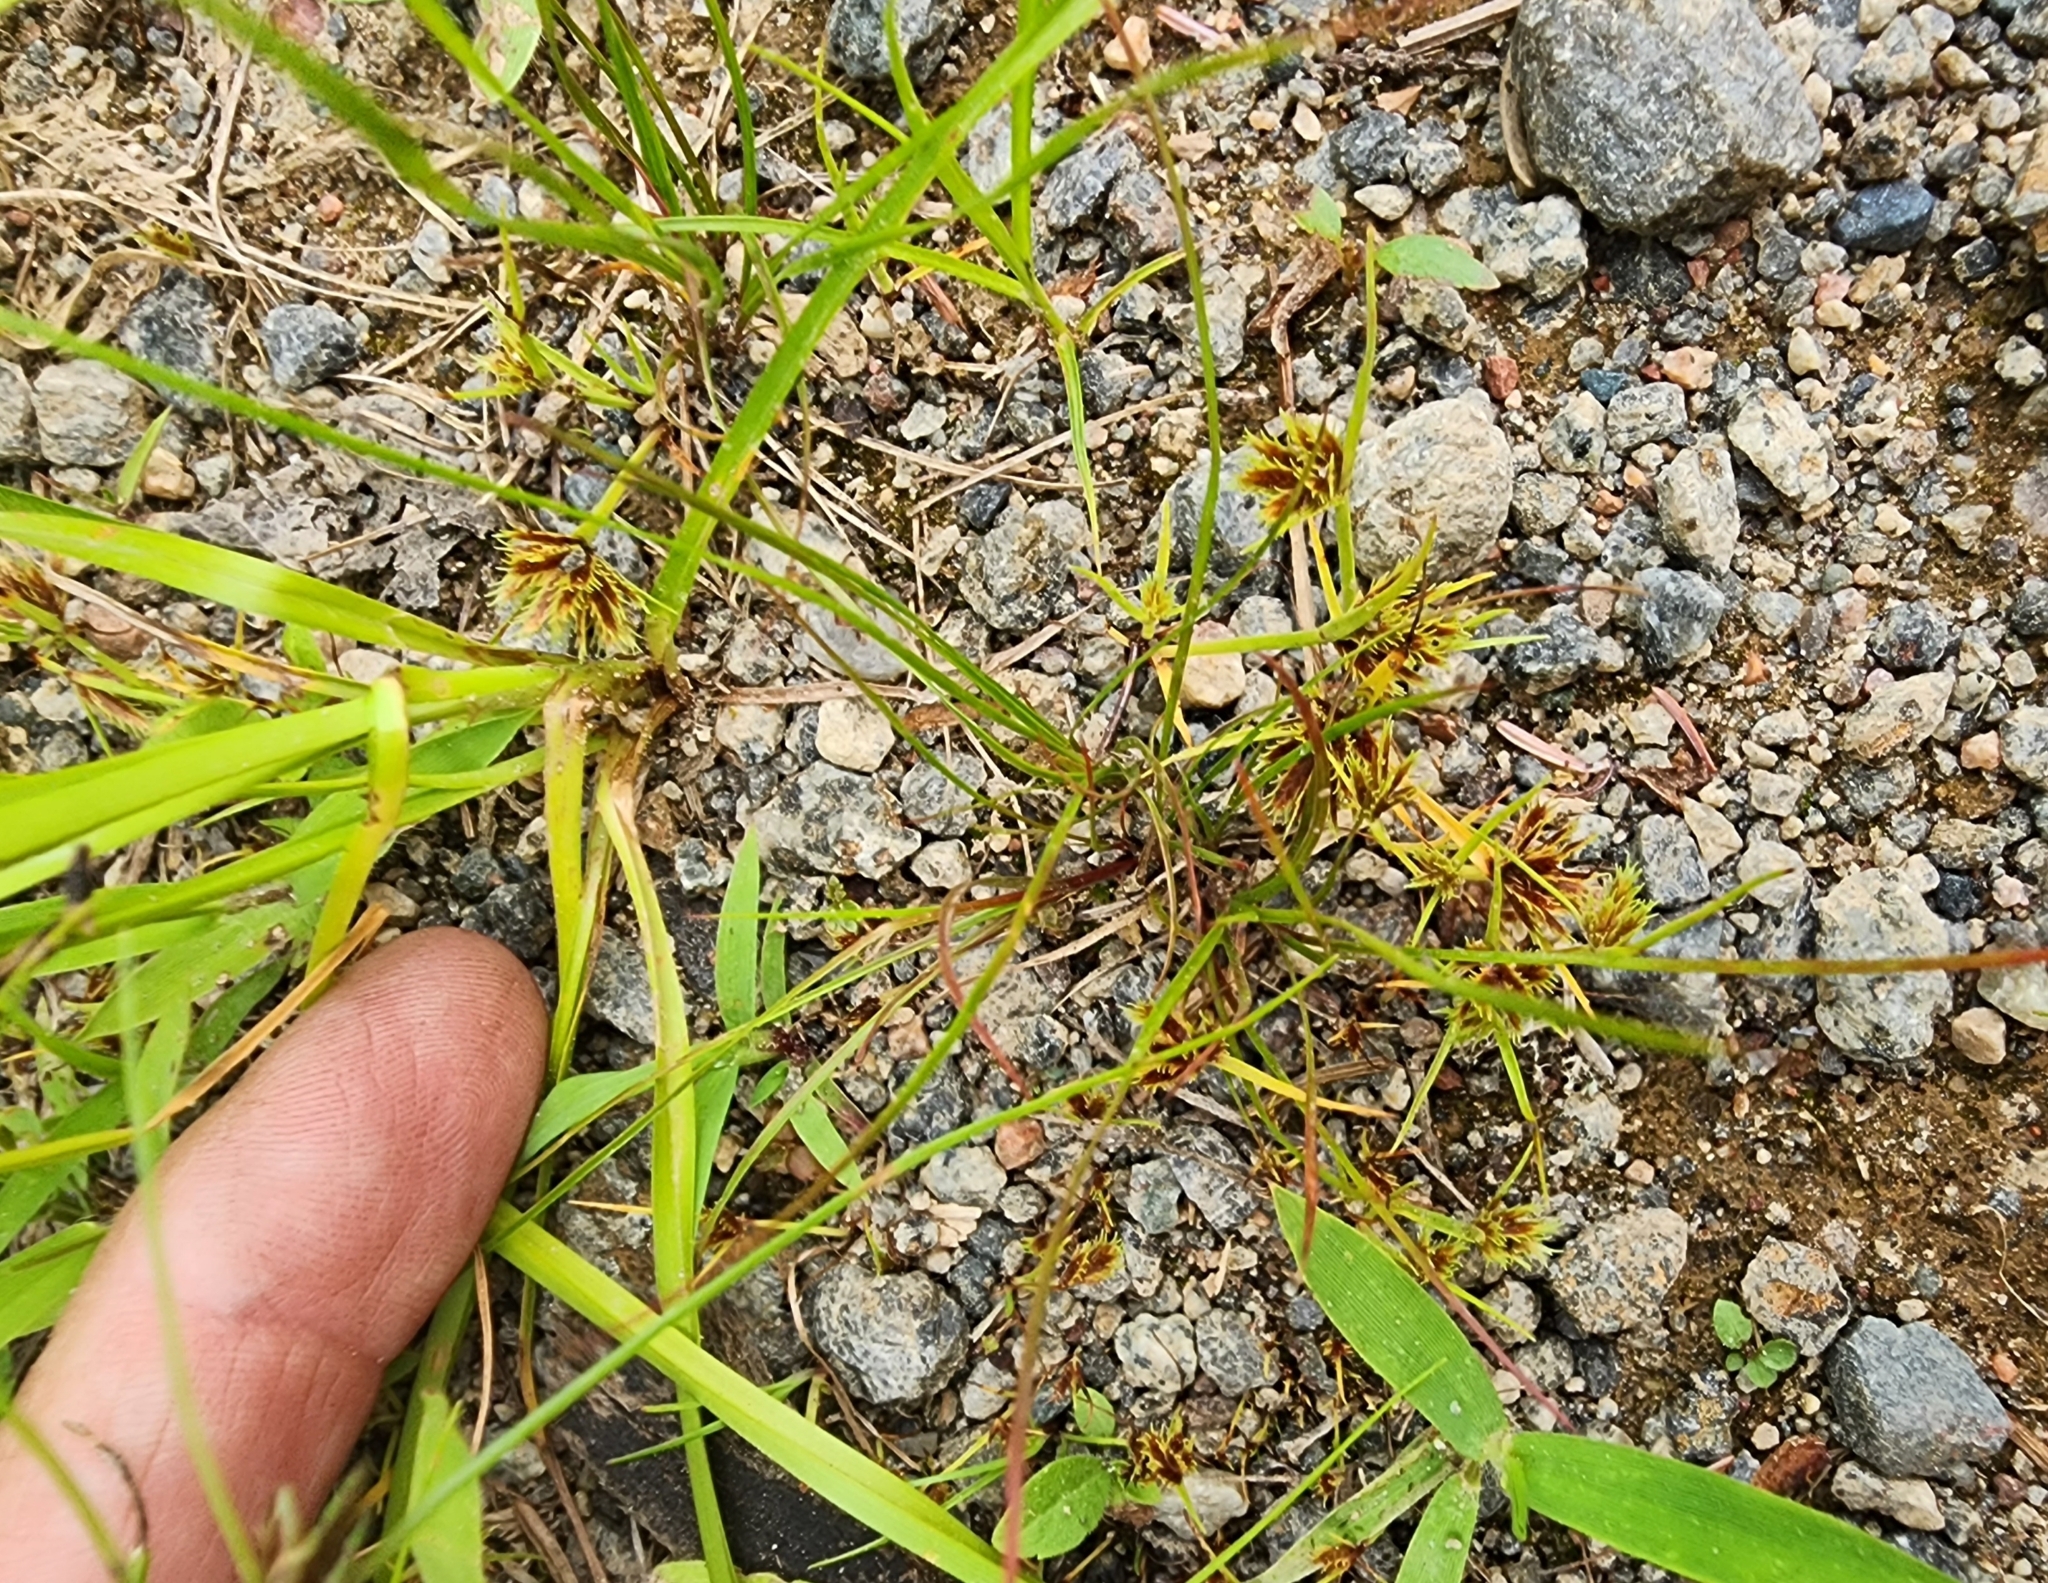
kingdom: Plantae
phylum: Tracheophyta
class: Liliopsida
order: Poales
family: Cyperaceae
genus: Cyperus
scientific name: Cyperus squarrosus
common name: Awned cyperus
